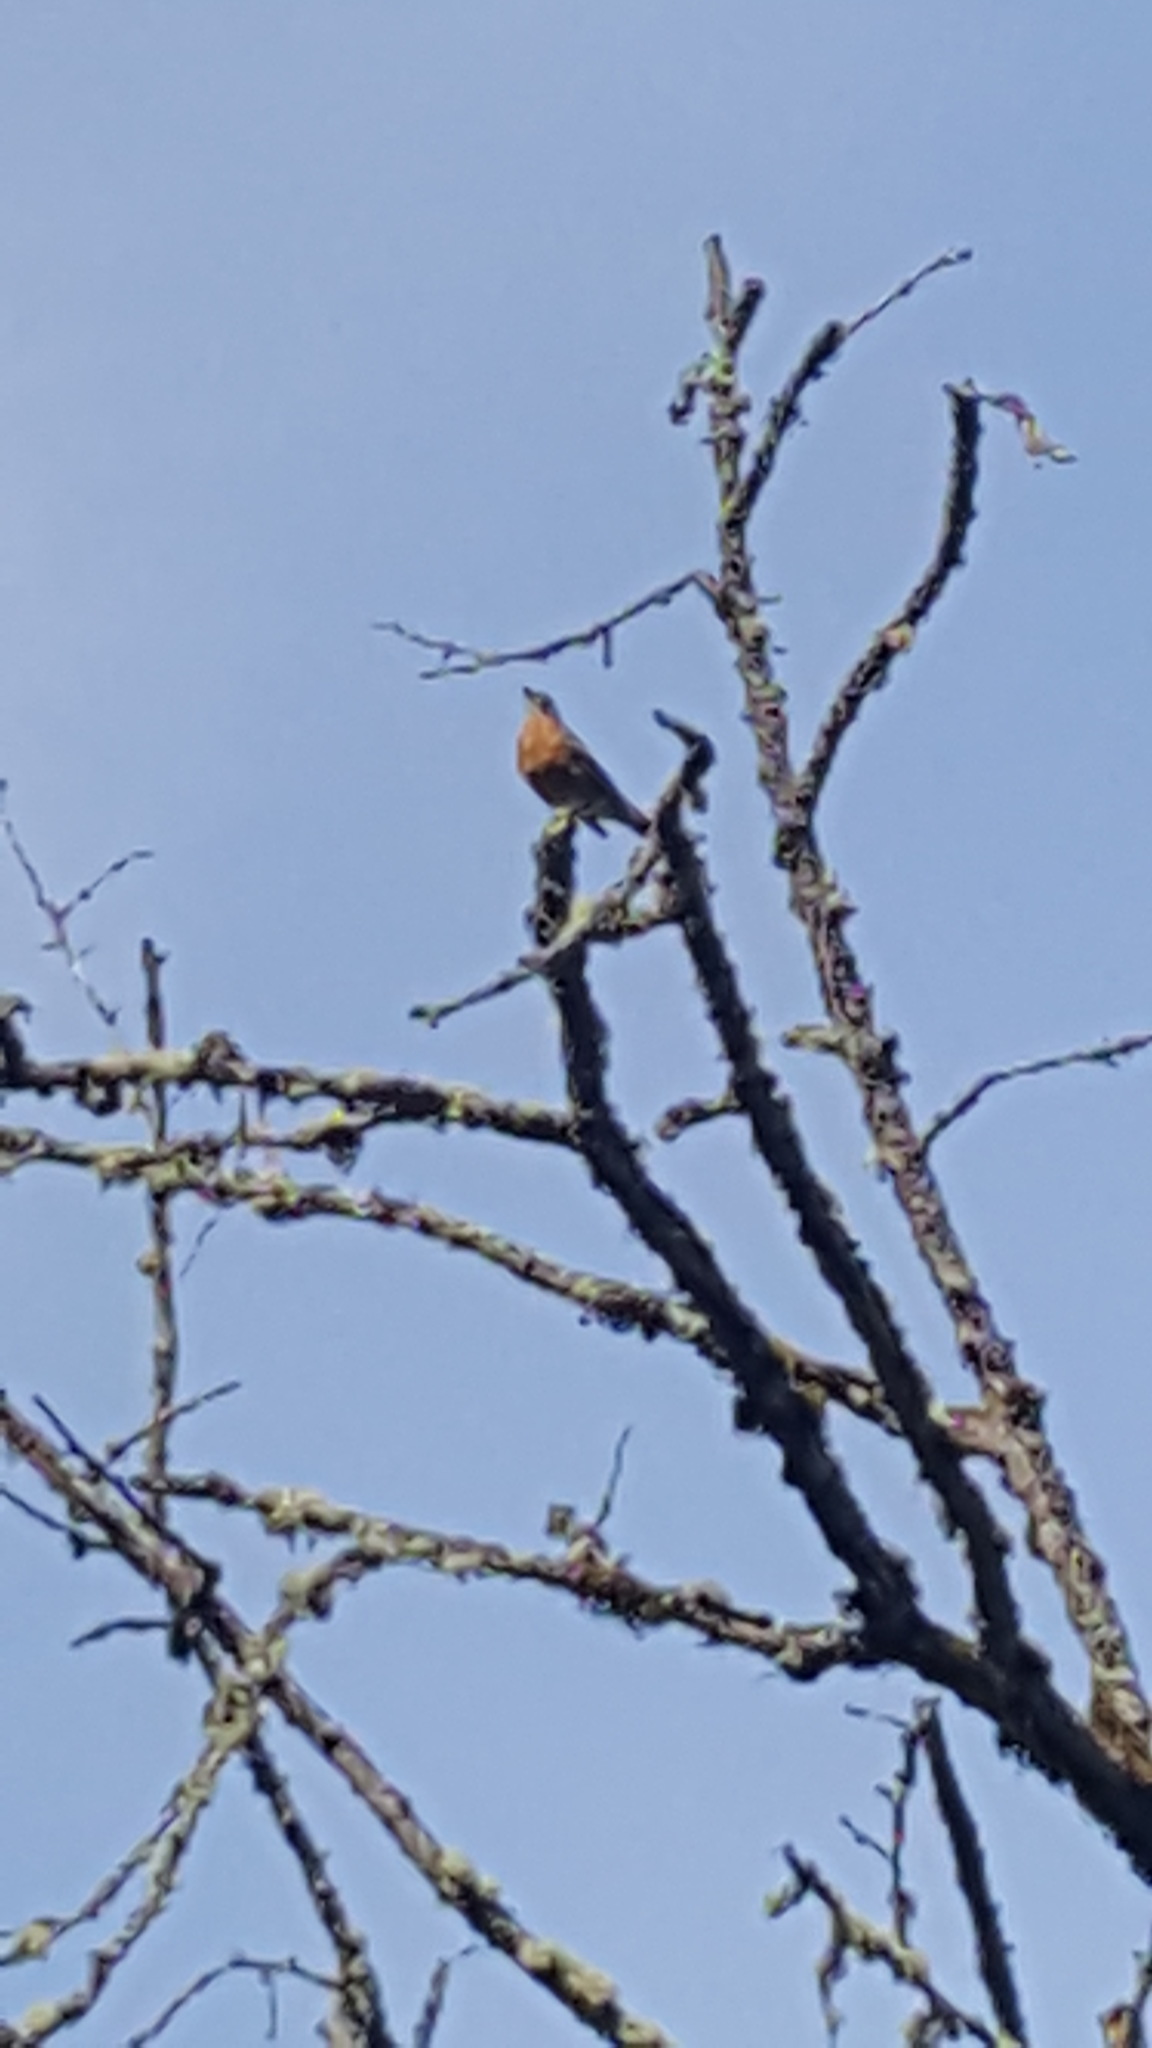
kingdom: Animalia
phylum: Chordata
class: Aves
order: Passeriformes
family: Turdidae
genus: Turdus
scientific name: Turdus migratorius
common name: American robin
